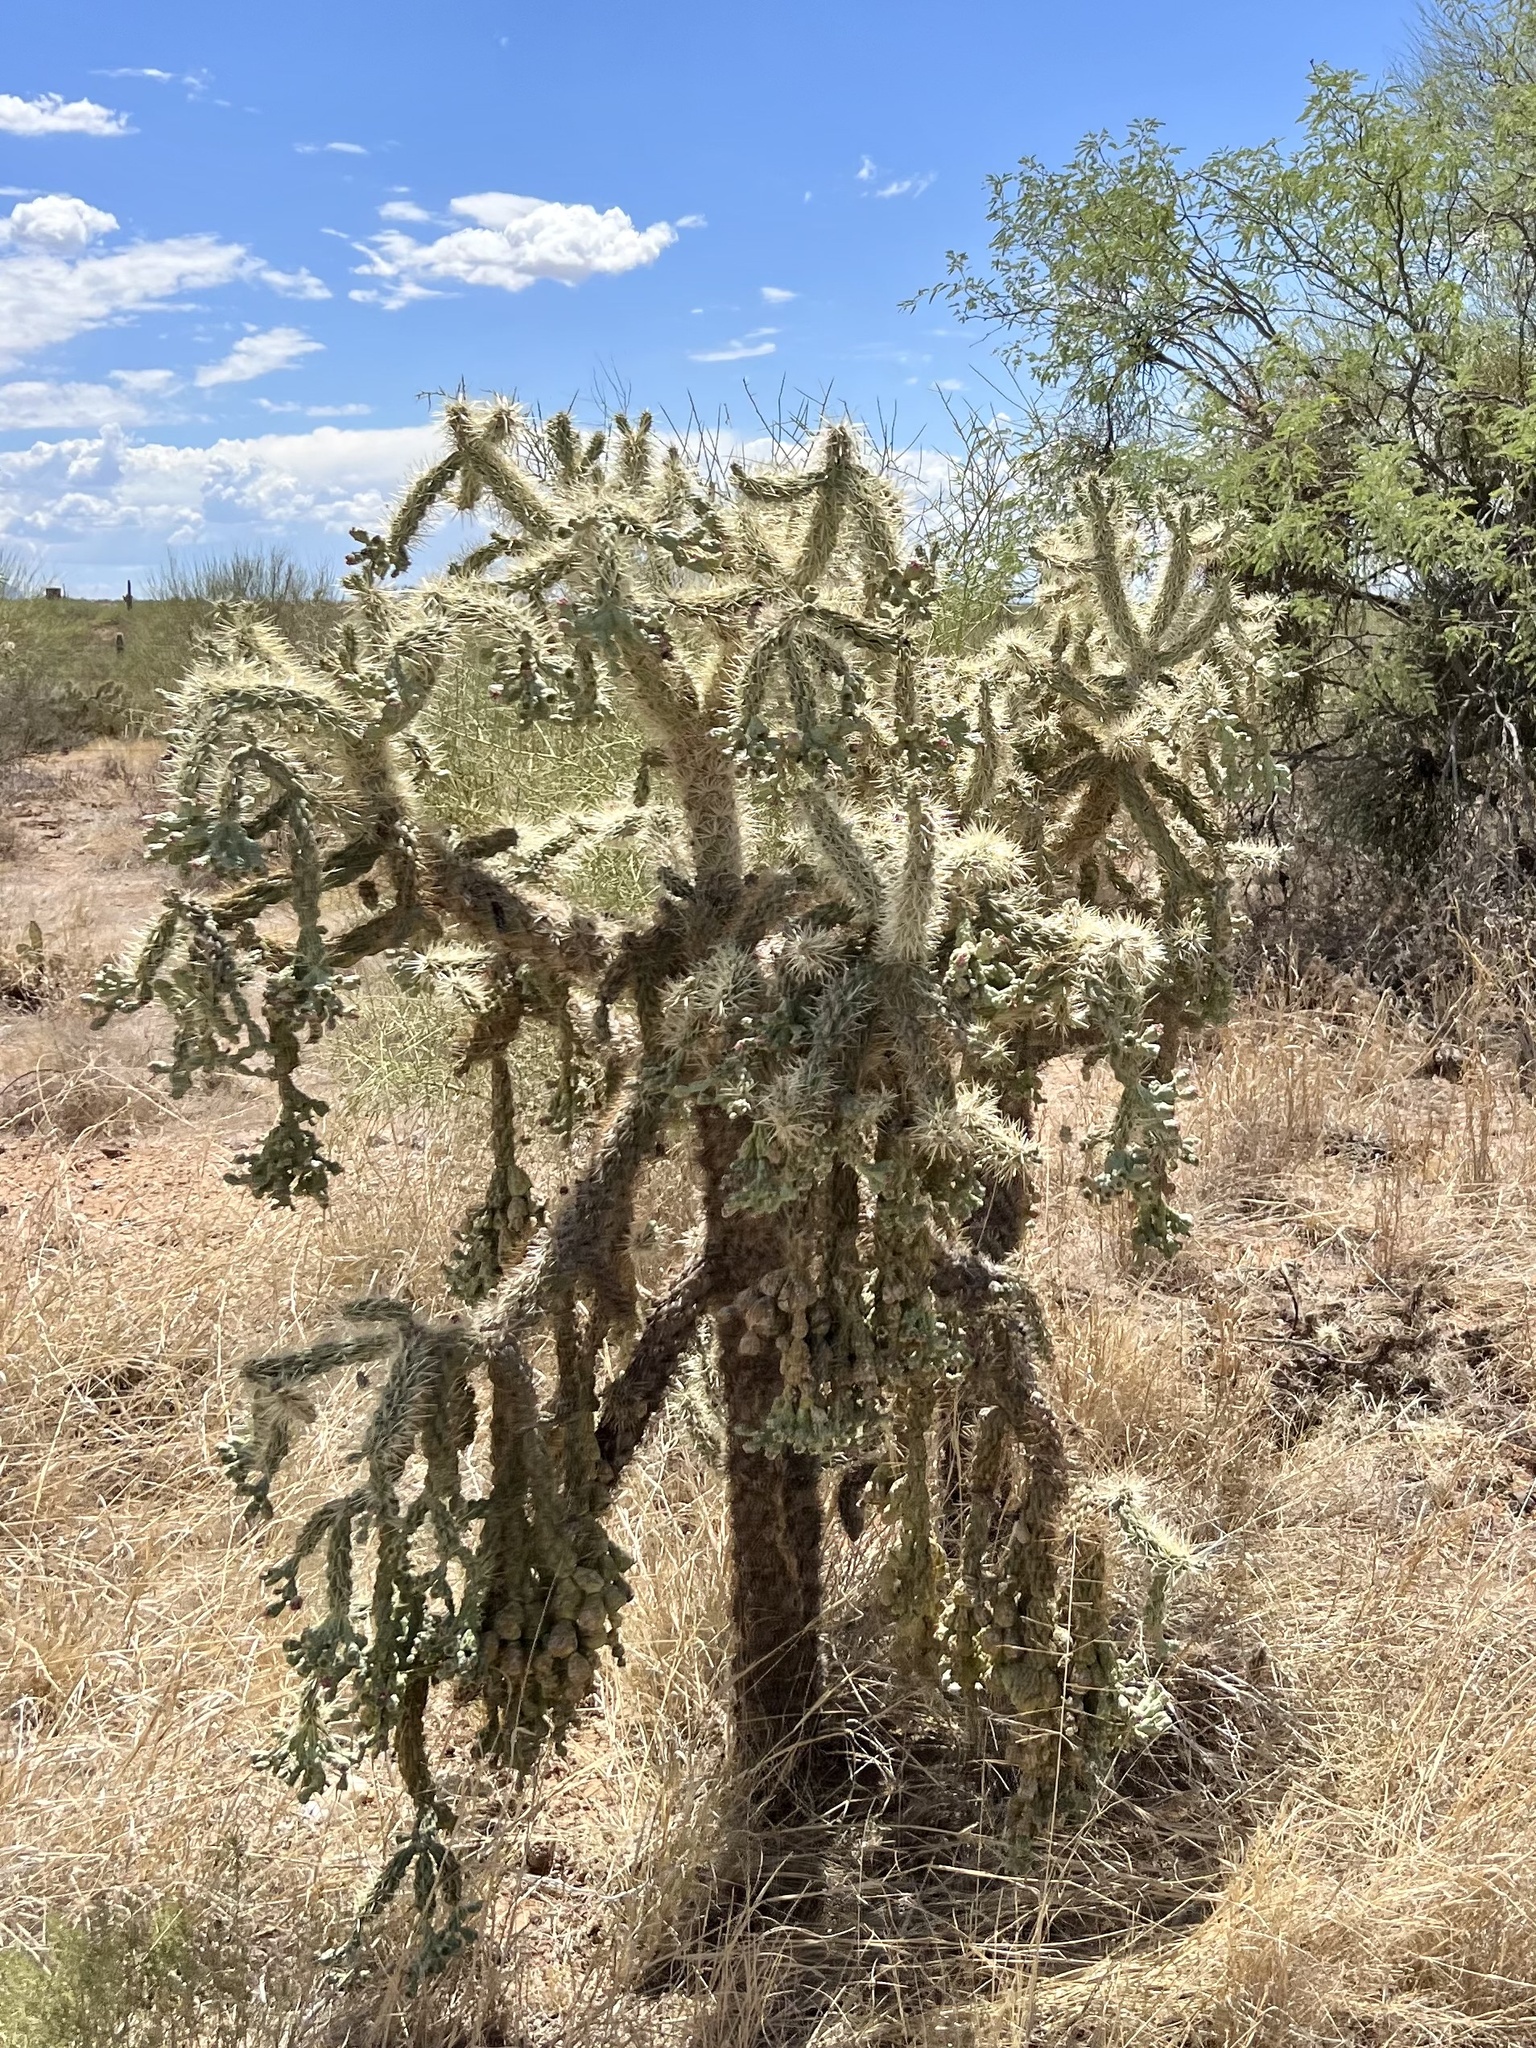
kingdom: Plantae
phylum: Tracheophyta
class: Magnoliopsida
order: Caryophyllales
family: Cactaceae
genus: Cylindropuntia
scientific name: Cylindropuntia fulgida
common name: Jumping cholla
